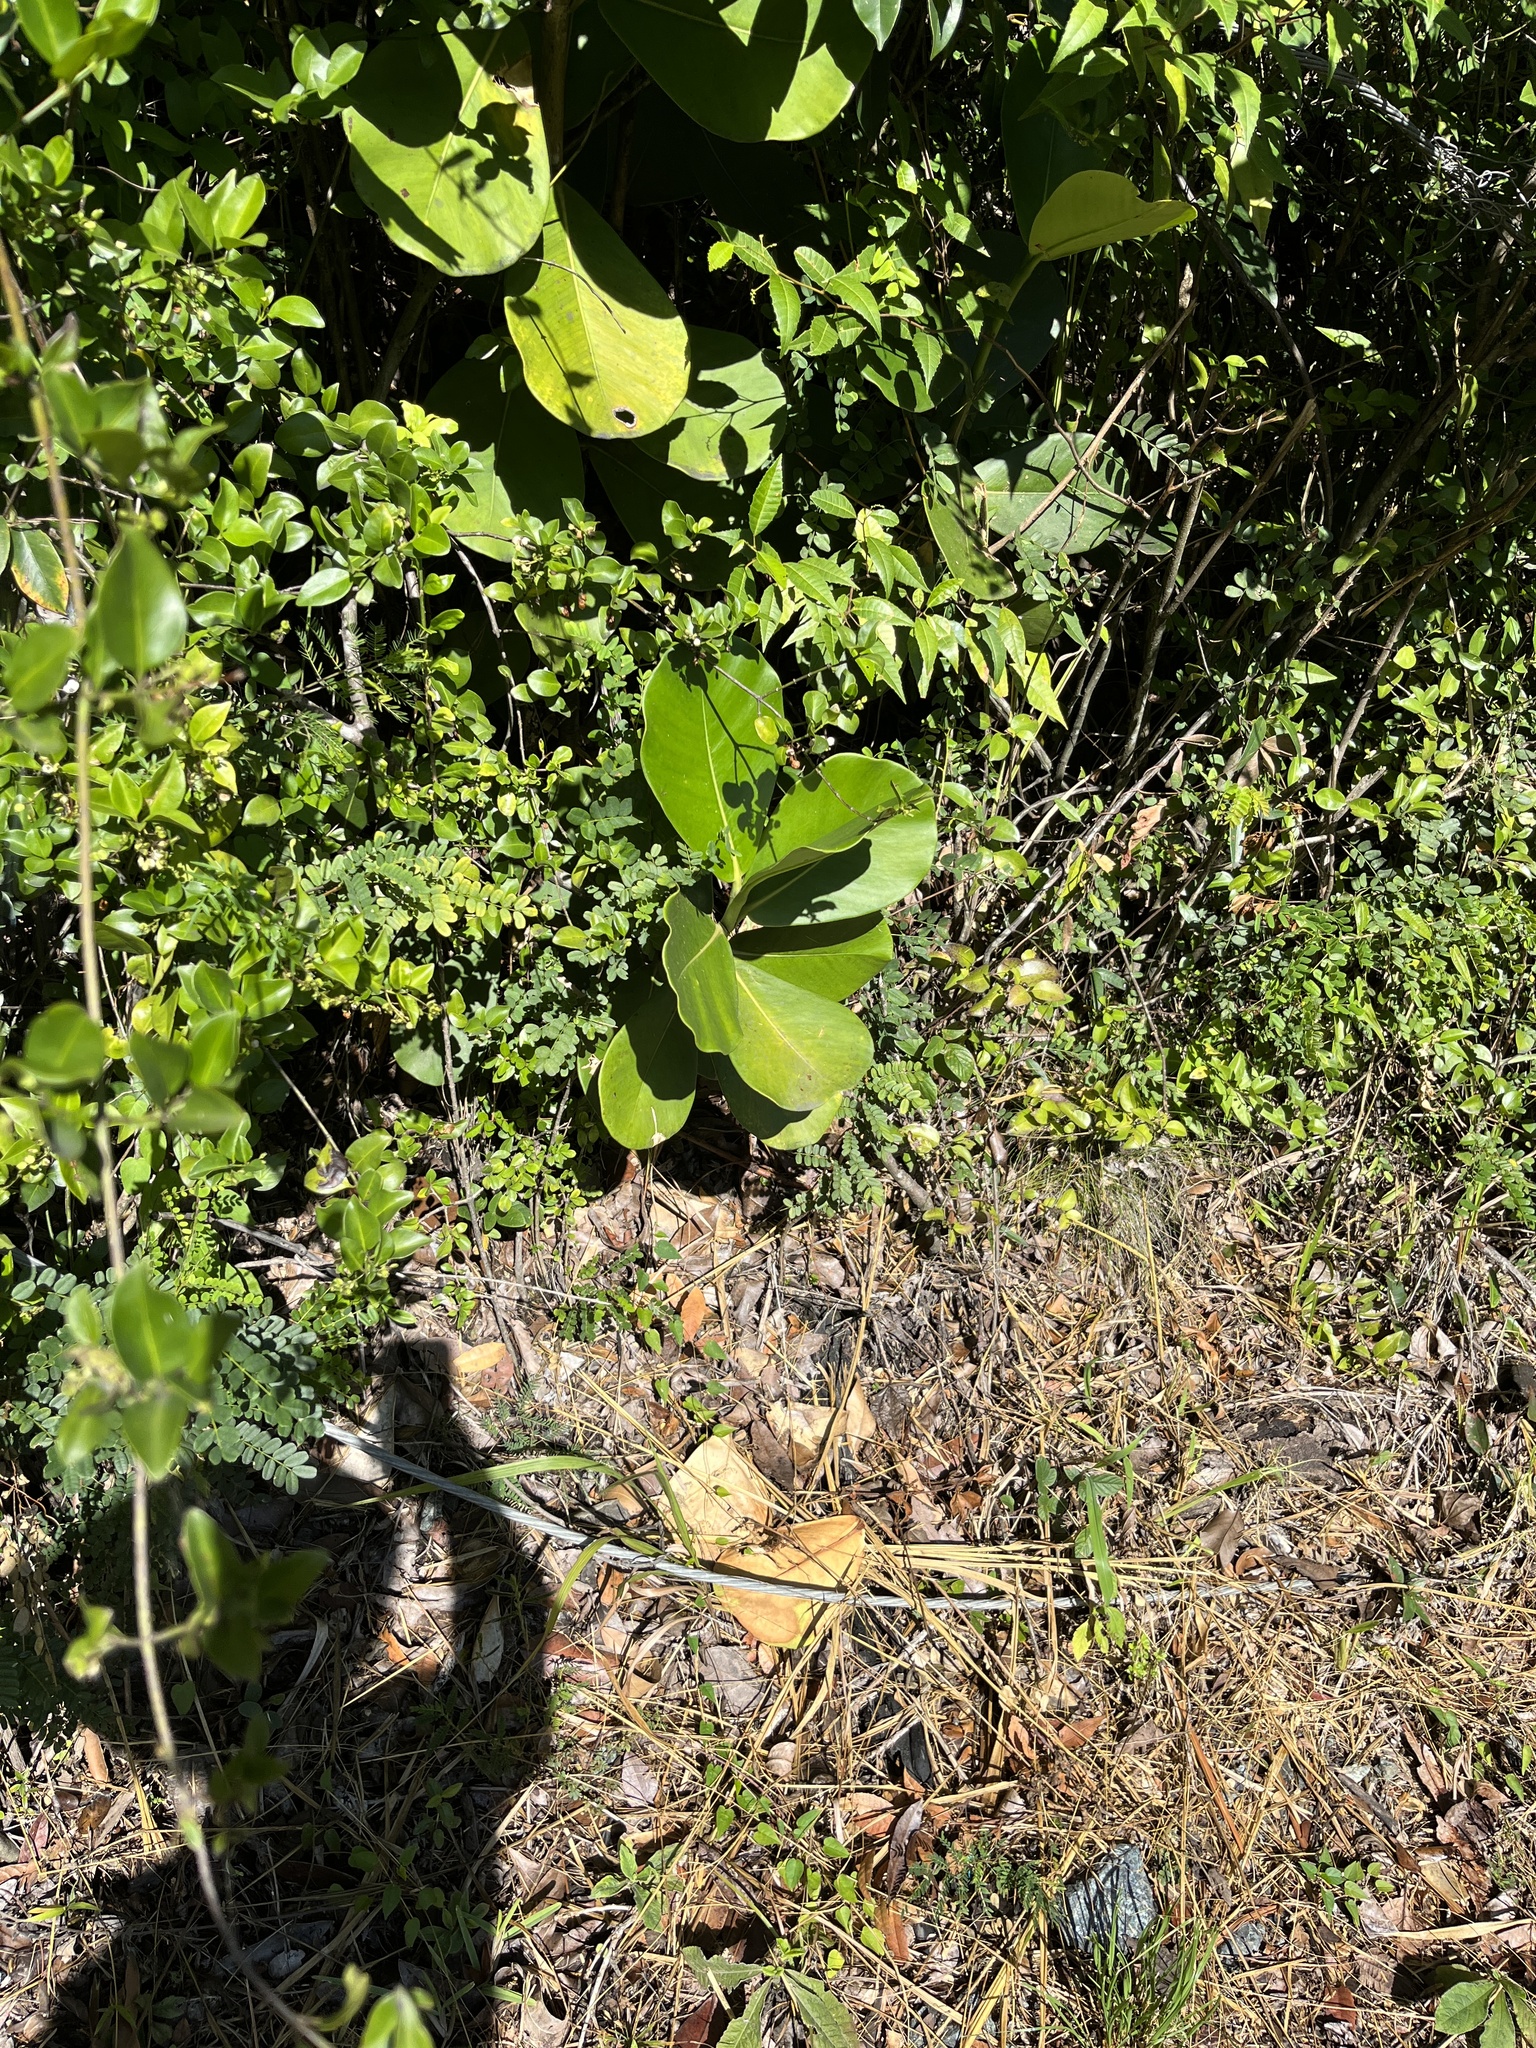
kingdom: Plantae
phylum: Tracheophyta
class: Magnoliopsida
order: Malpighiales
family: Clusiaceae
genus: Clusia
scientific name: Clusia rosea
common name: Scotch attorney
